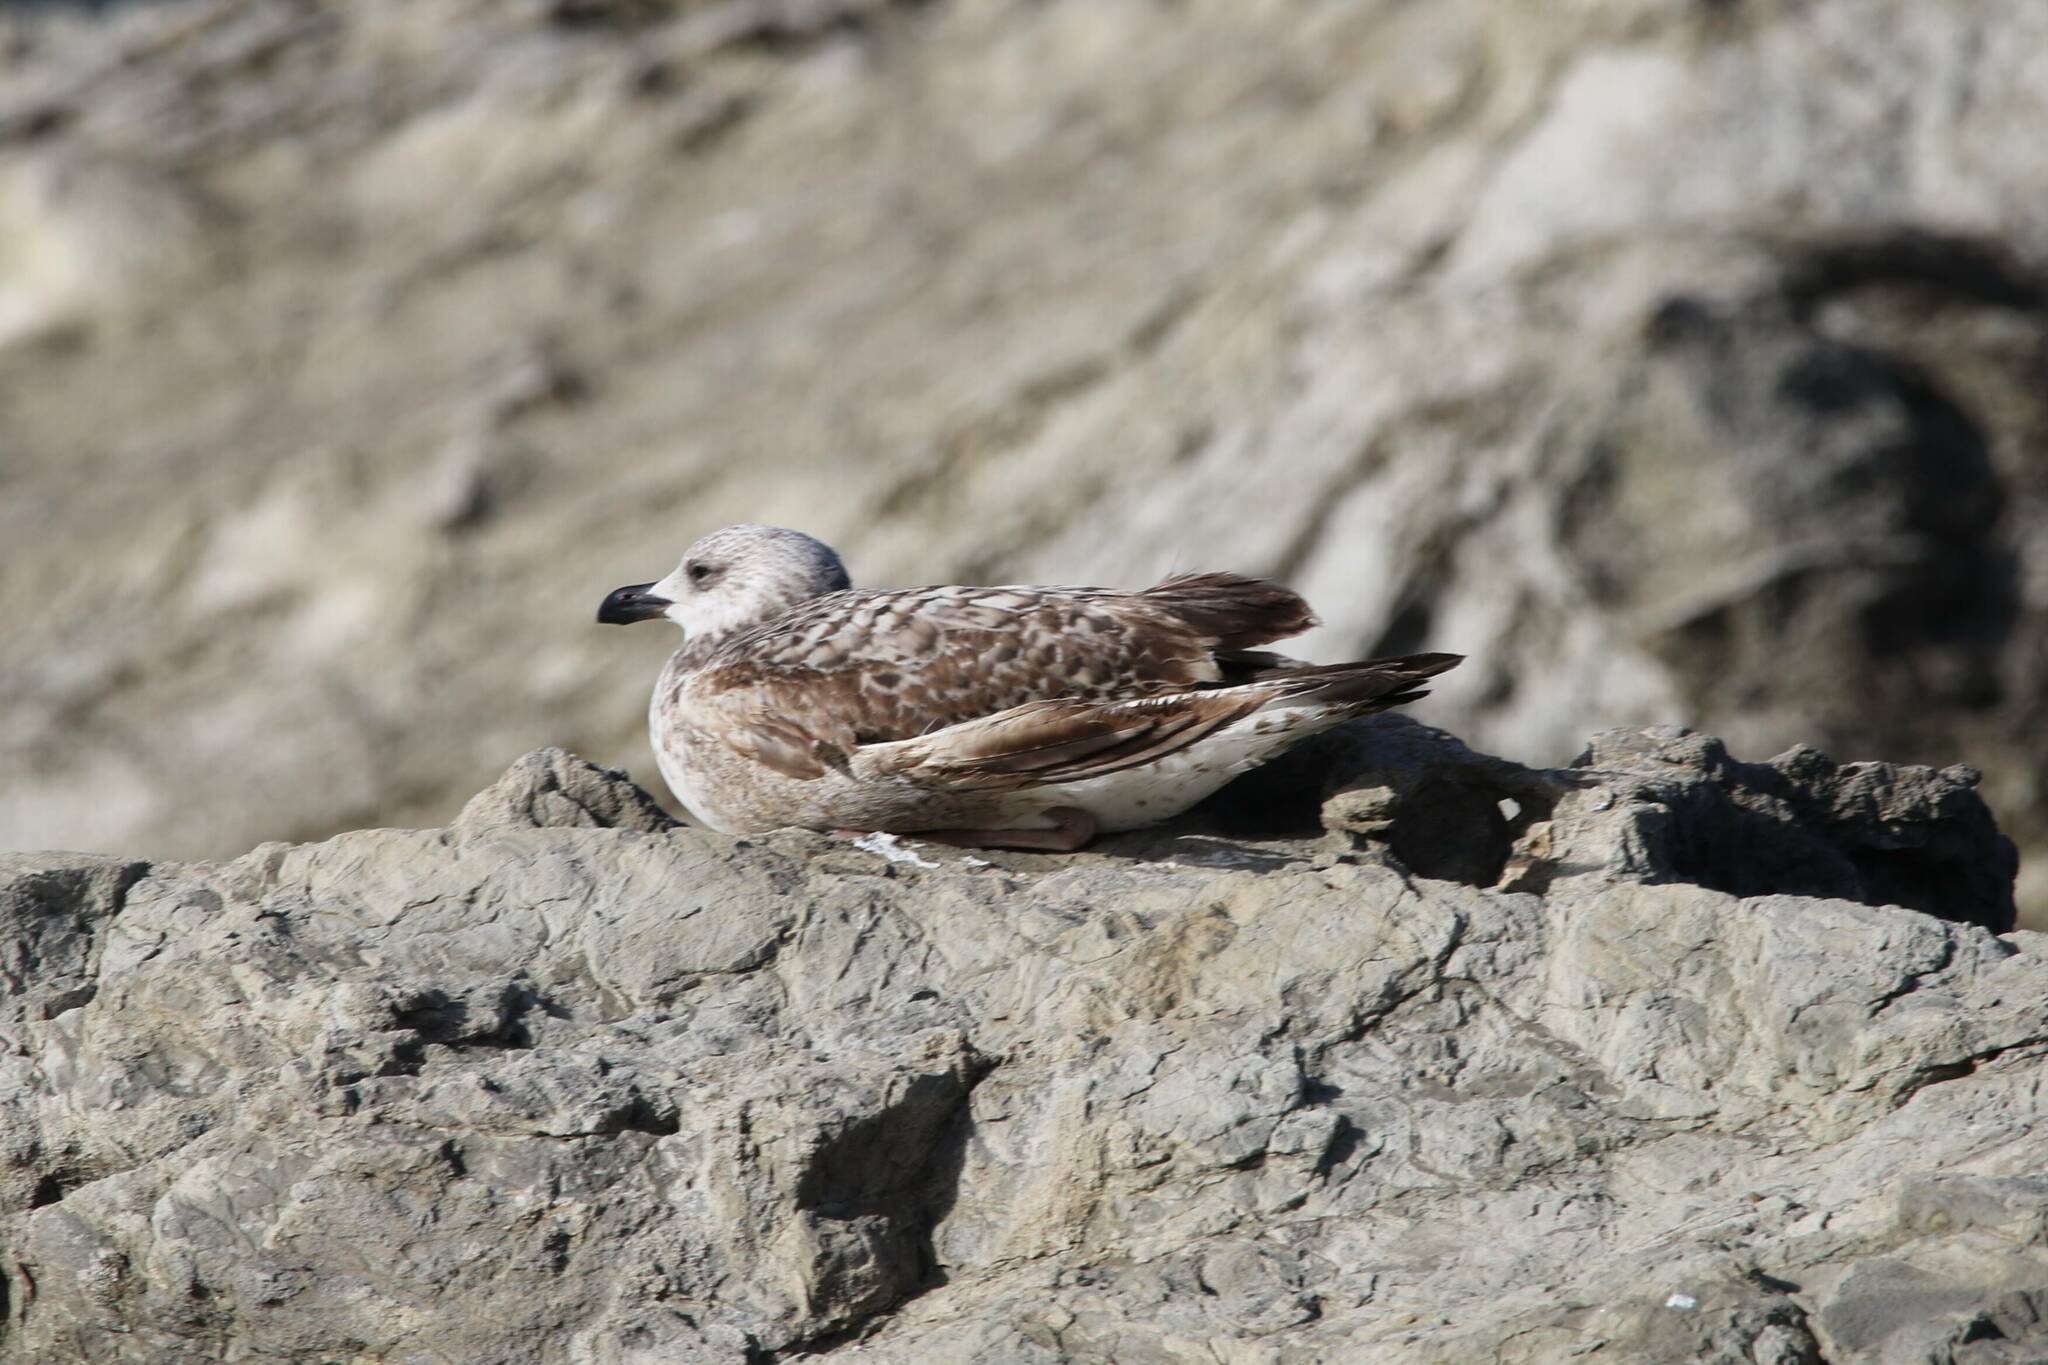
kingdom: Animalia
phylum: Chordata
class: Aves
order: Charadriiformes
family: Laridae
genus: Larus
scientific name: Larus michahellis
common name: Yellow-legged gull
